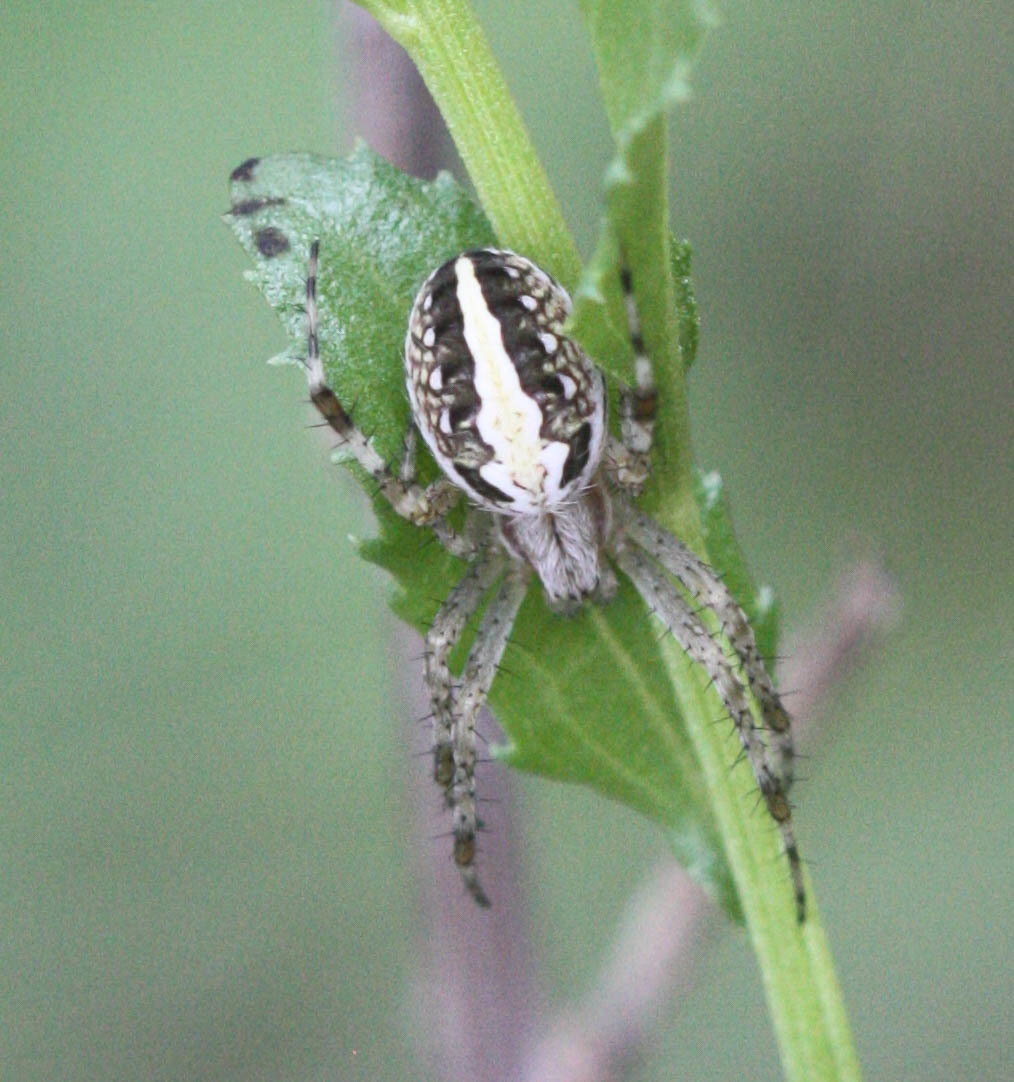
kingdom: Animalia
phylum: Arthropoda
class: Arachnida
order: Araneae
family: Araneidae
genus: Neoscona
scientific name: Neoscona oaxacensis
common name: Orb weavers
